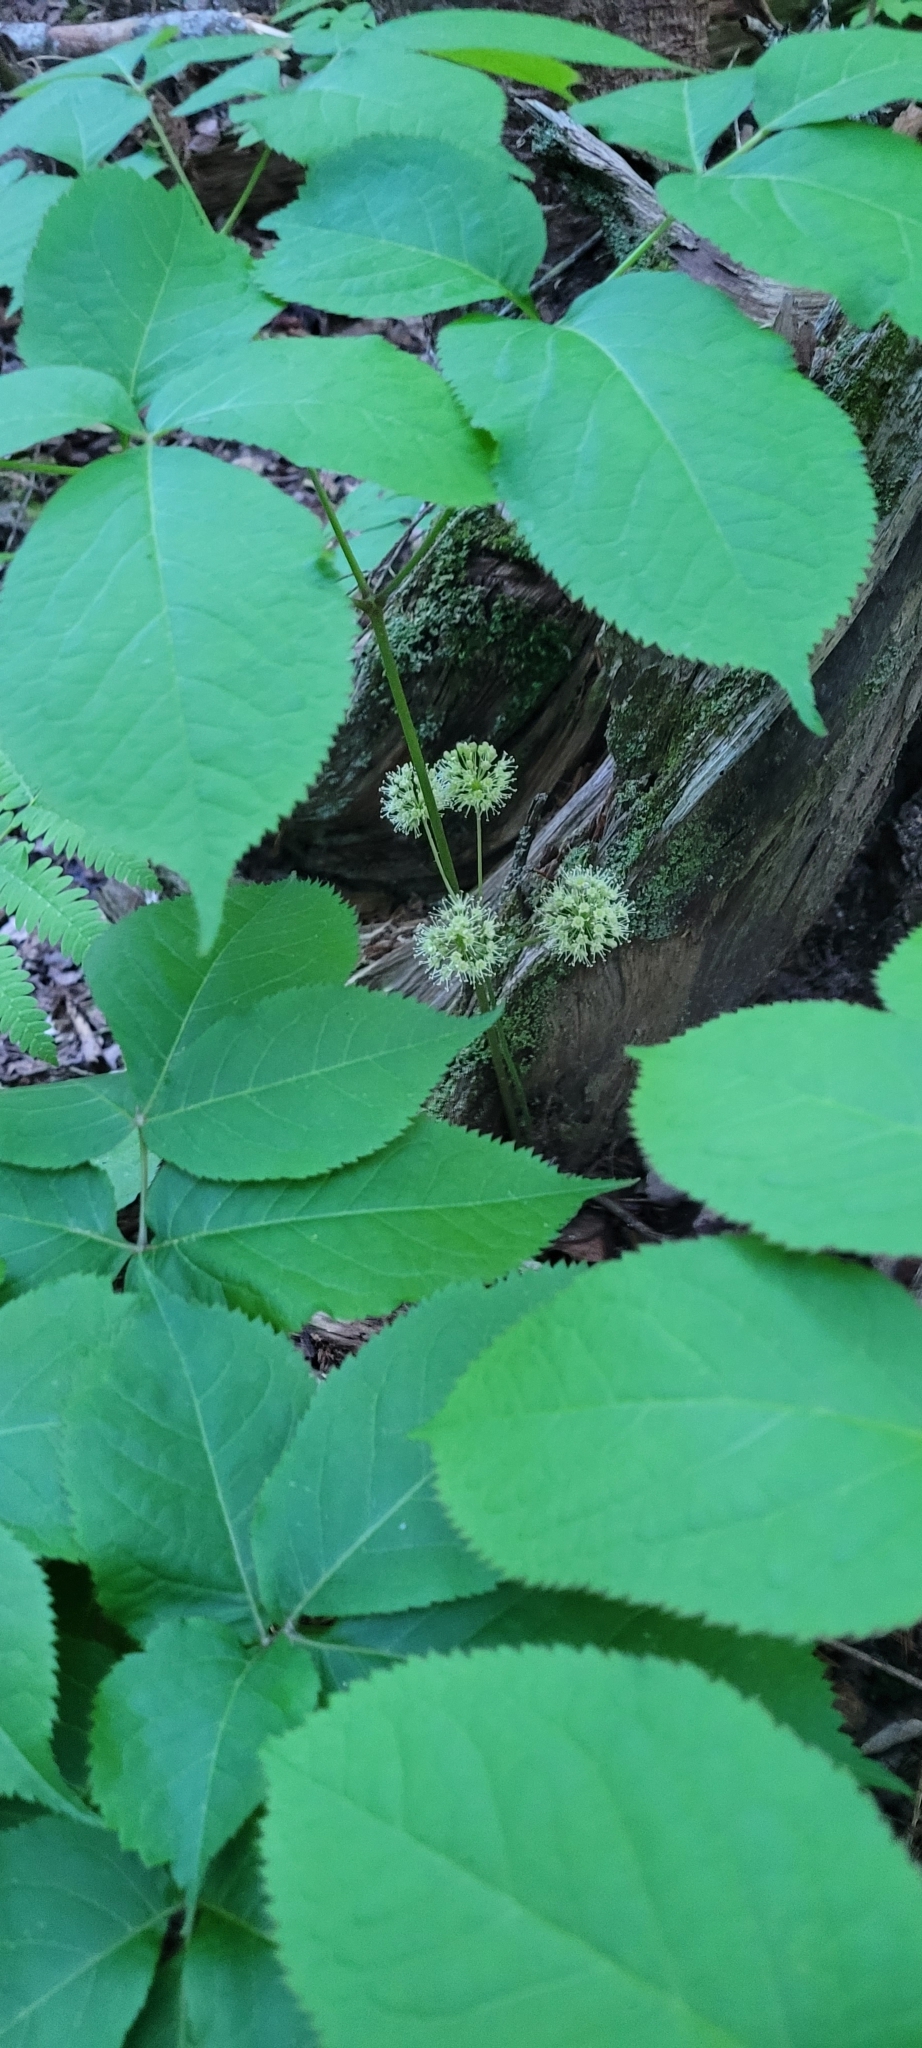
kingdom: Plantae
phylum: Tracheophyta
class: Magnoliopsida
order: Apiales
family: Araliaceae
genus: Aralia
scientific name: Aralia nudicaulis
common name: Wild sarsaparilla
